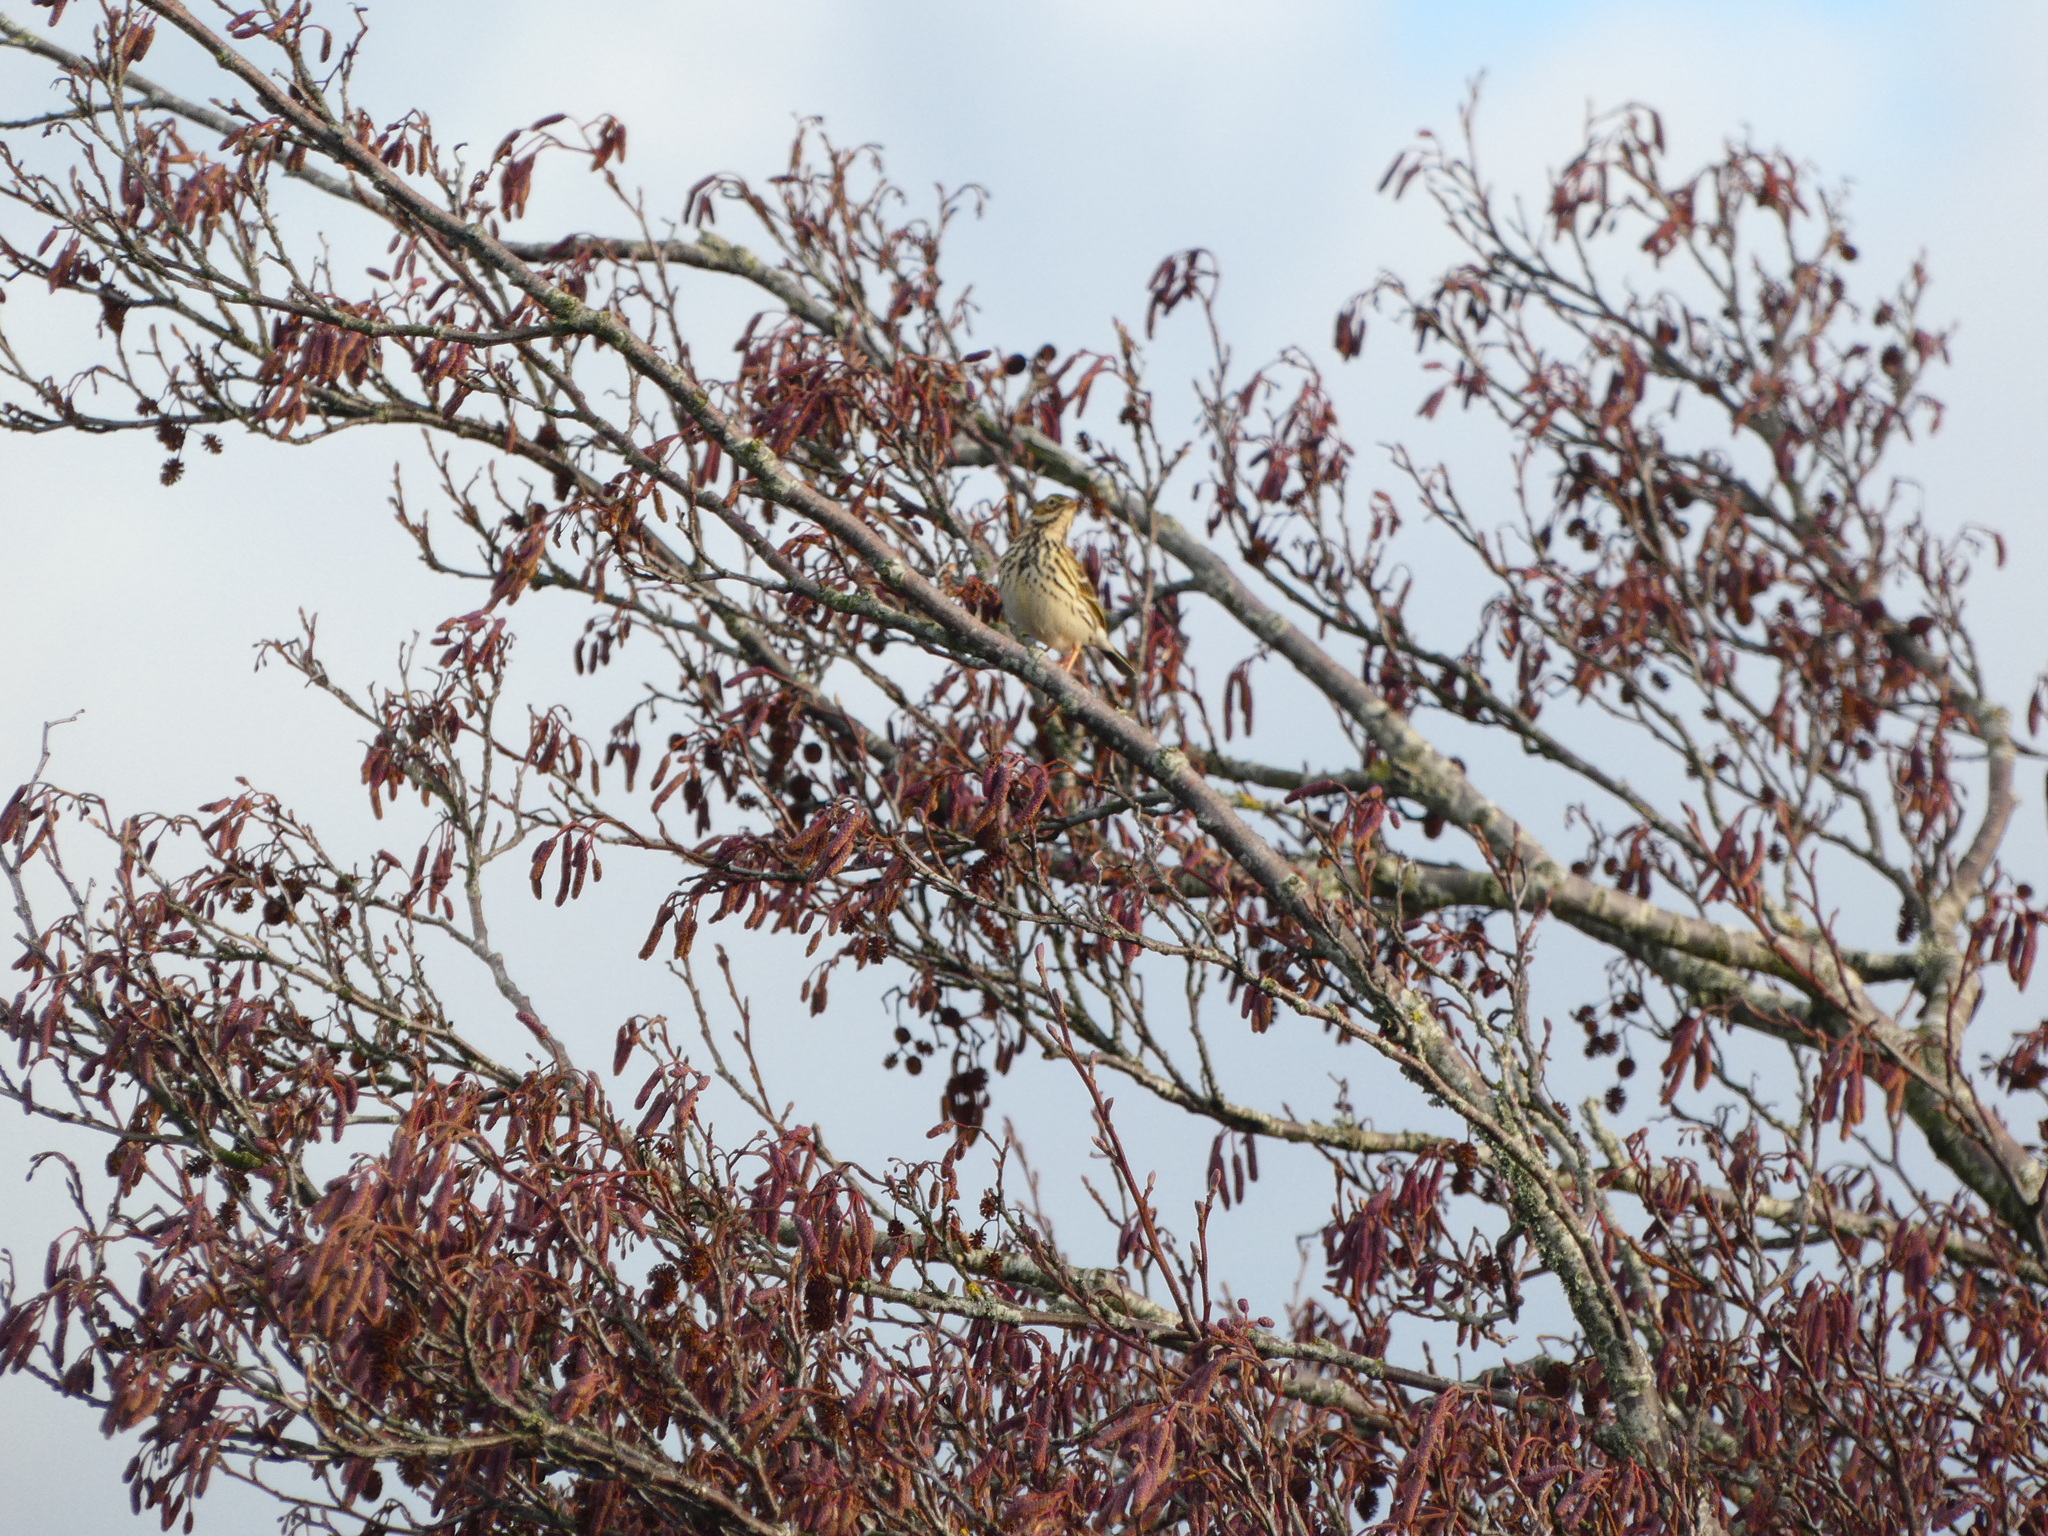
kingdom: Animalia
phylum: Chordata
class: Aves
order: Passeriformes
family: Turdidae
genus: Turdus
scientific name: Turdus philomelos
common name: Song thrush
